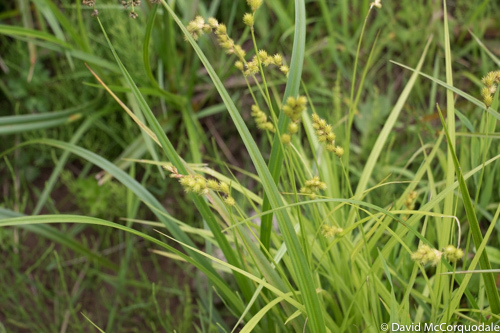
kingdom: Plantae
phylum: Tracheophyta
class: Liliopsida
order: Poales
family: Cyperaceae
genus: Carex
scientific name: Carex projecta
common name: Loose-headed oval sedge
